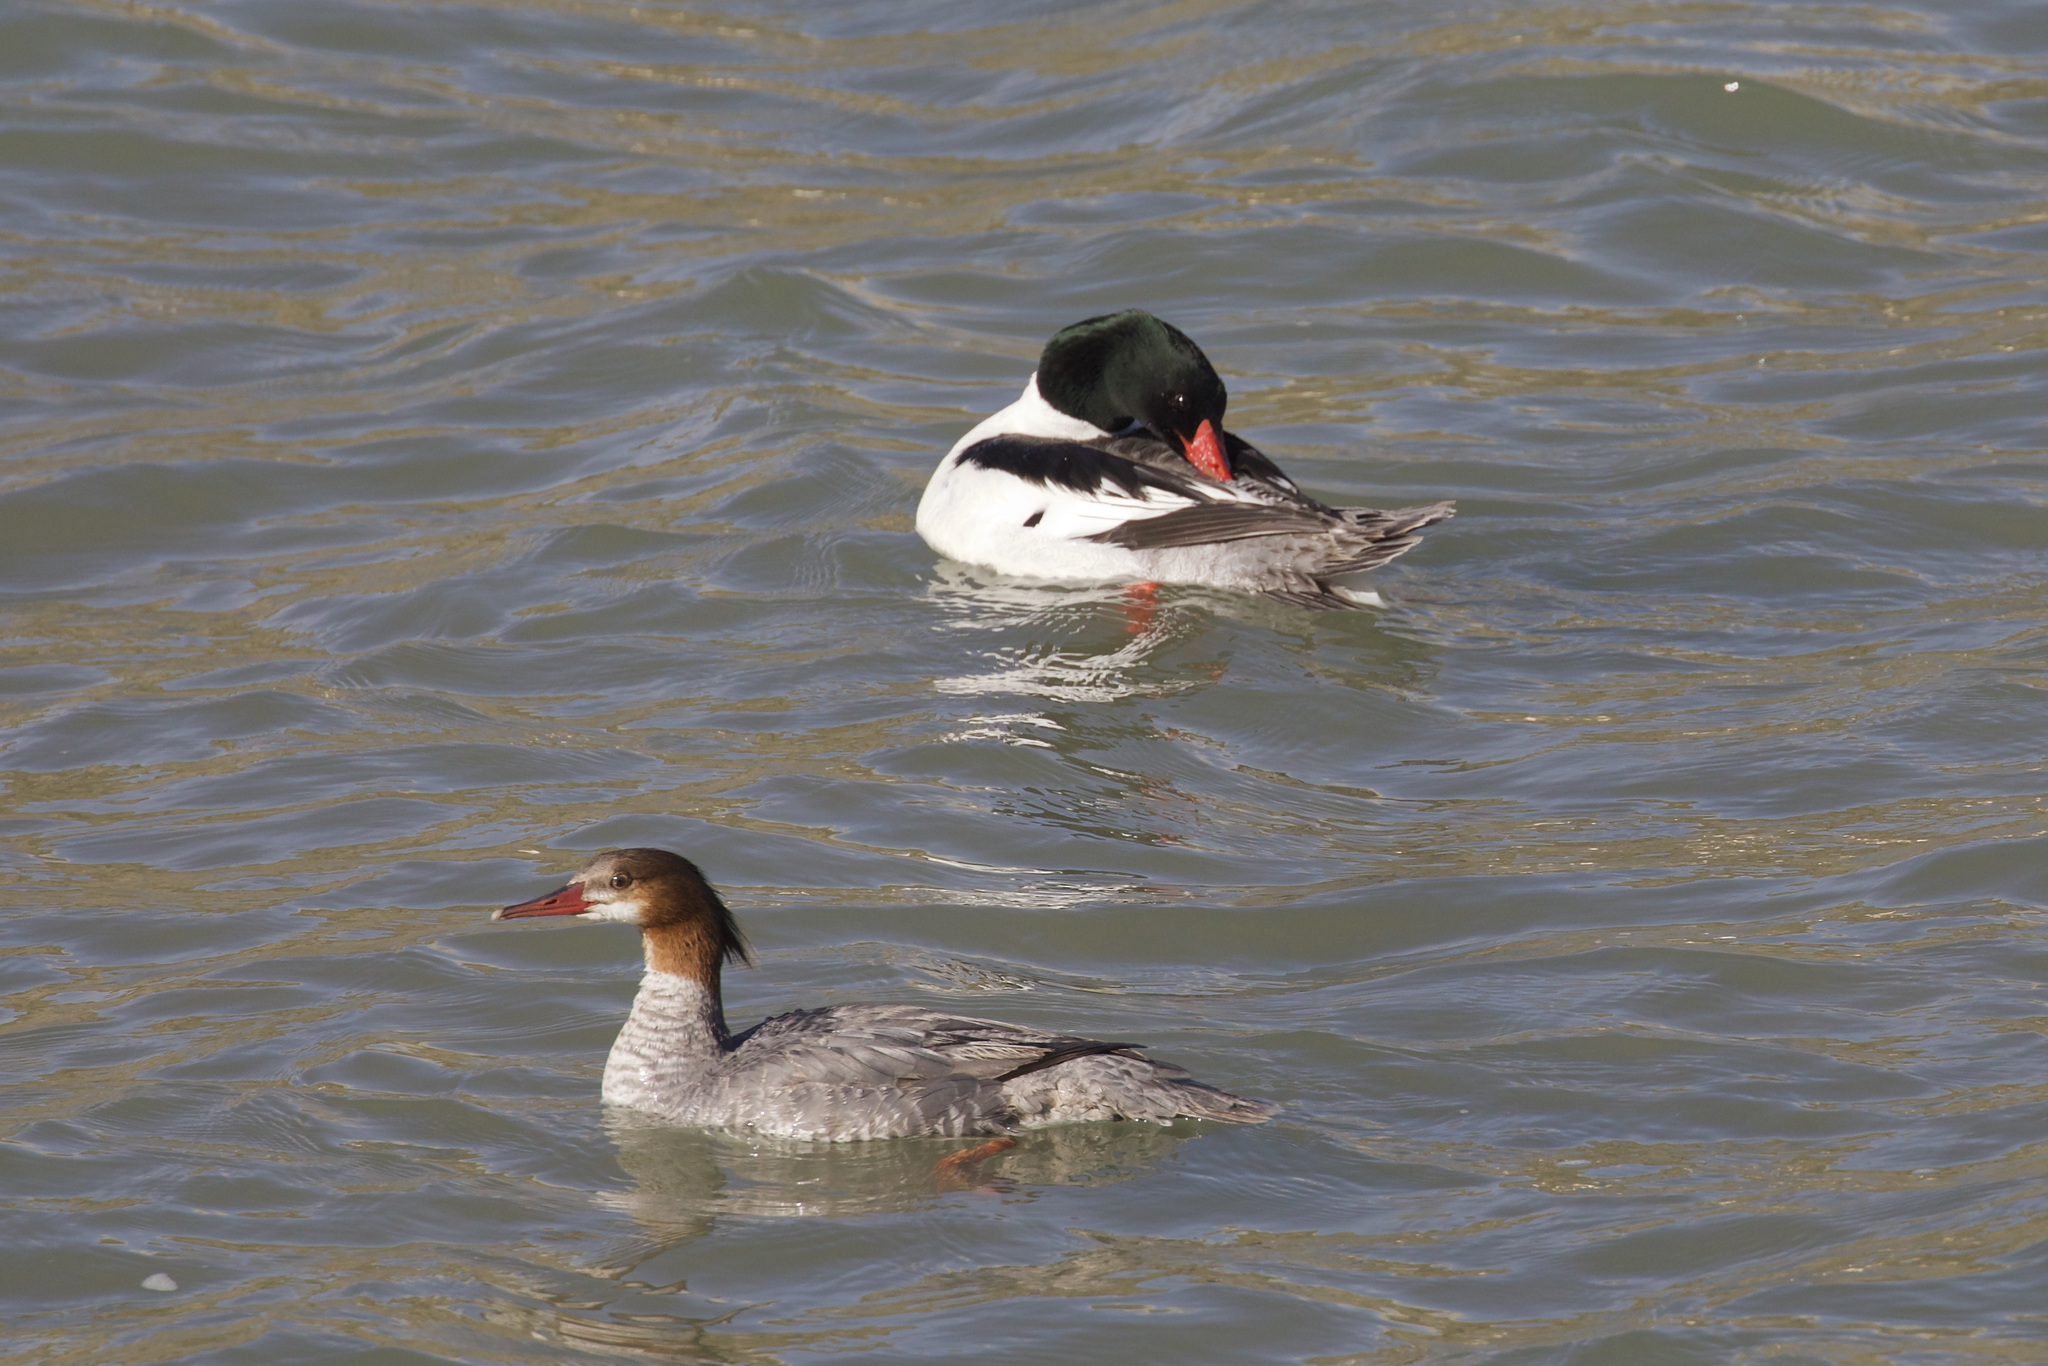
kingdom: Animalia
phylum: Chordata
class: Aves
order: Anseriformes
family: Anatidae
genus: Mergus
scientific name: Mergus merganser
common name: Common merganser
